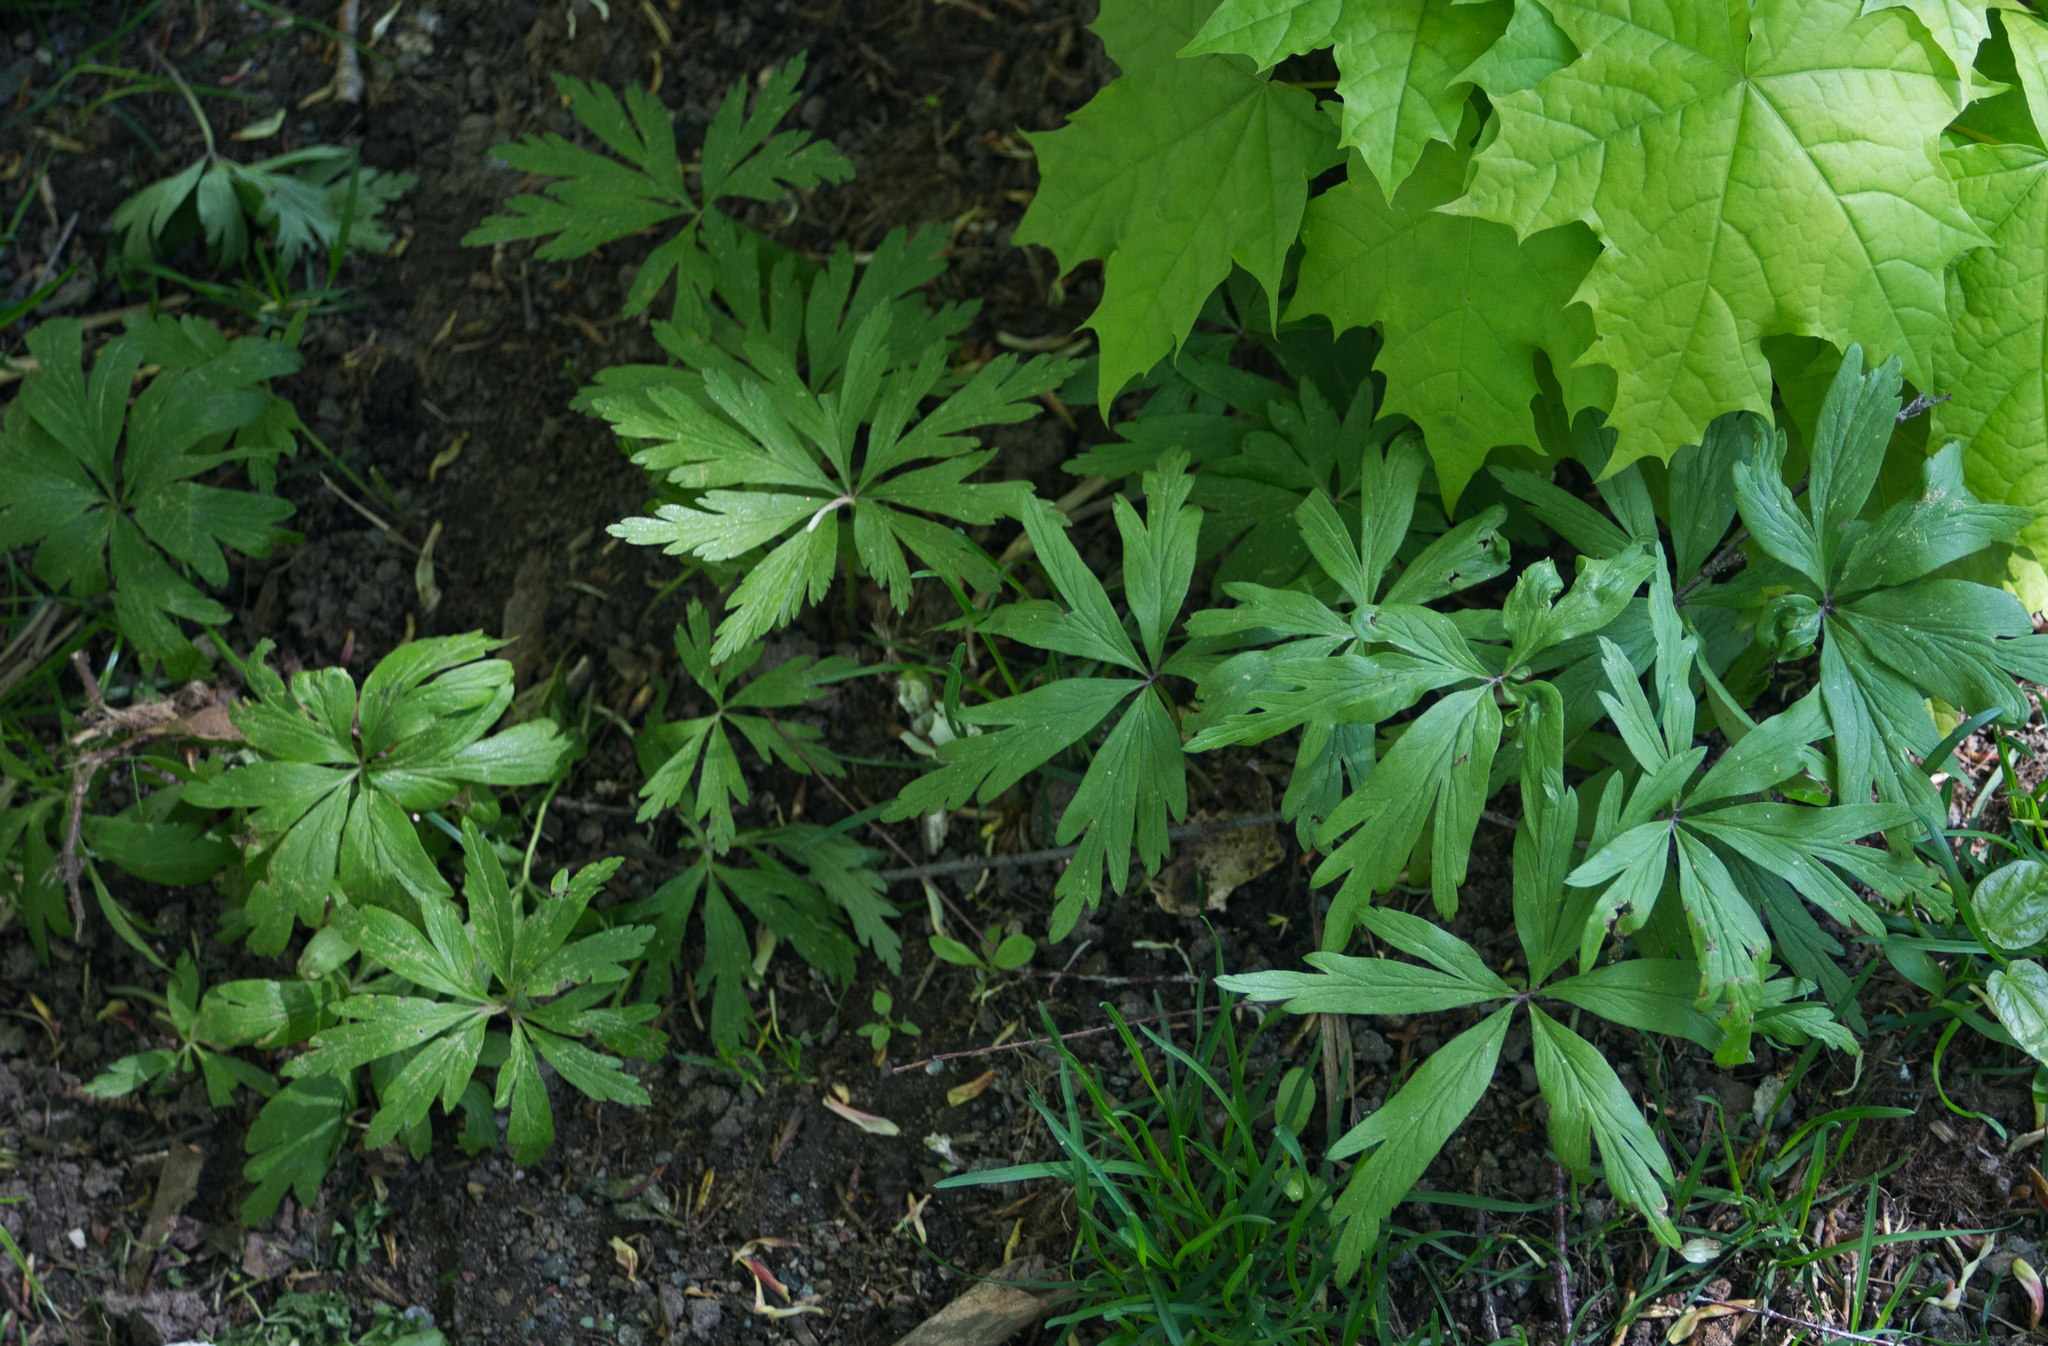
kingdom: Plantae
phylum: Tracheophyta
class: Magnoliopsida
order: Ranunculales
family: Ranunculaceae
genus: Anemone
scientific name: Anemone ranunculoides
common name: Yellow anemone
